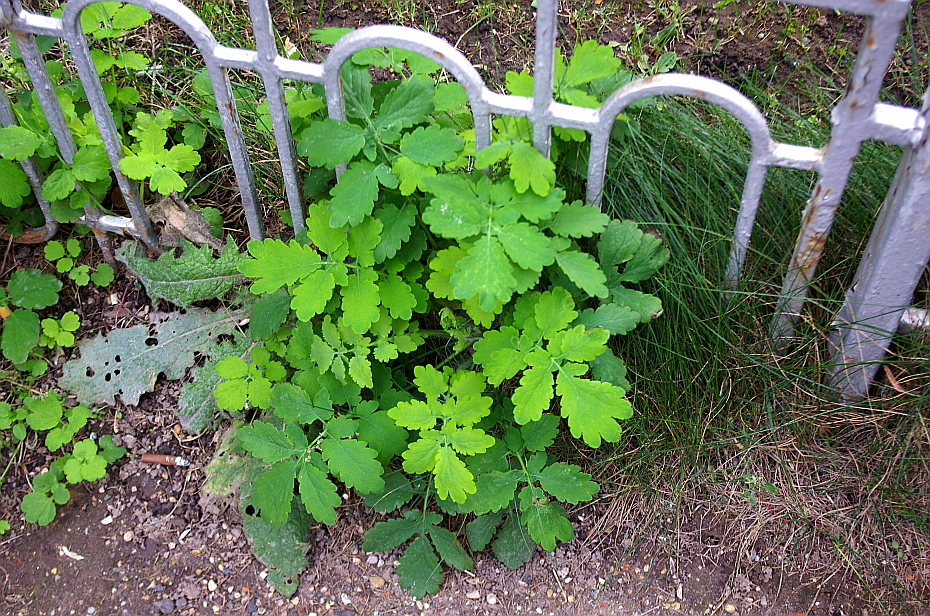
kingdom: Plantae
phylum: Tracheophyta
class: Magnoliopsida
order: Ranunculales
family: Papaveraceae
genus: Chelidonium
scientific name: Chelidonium majus
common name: Greater celandine
